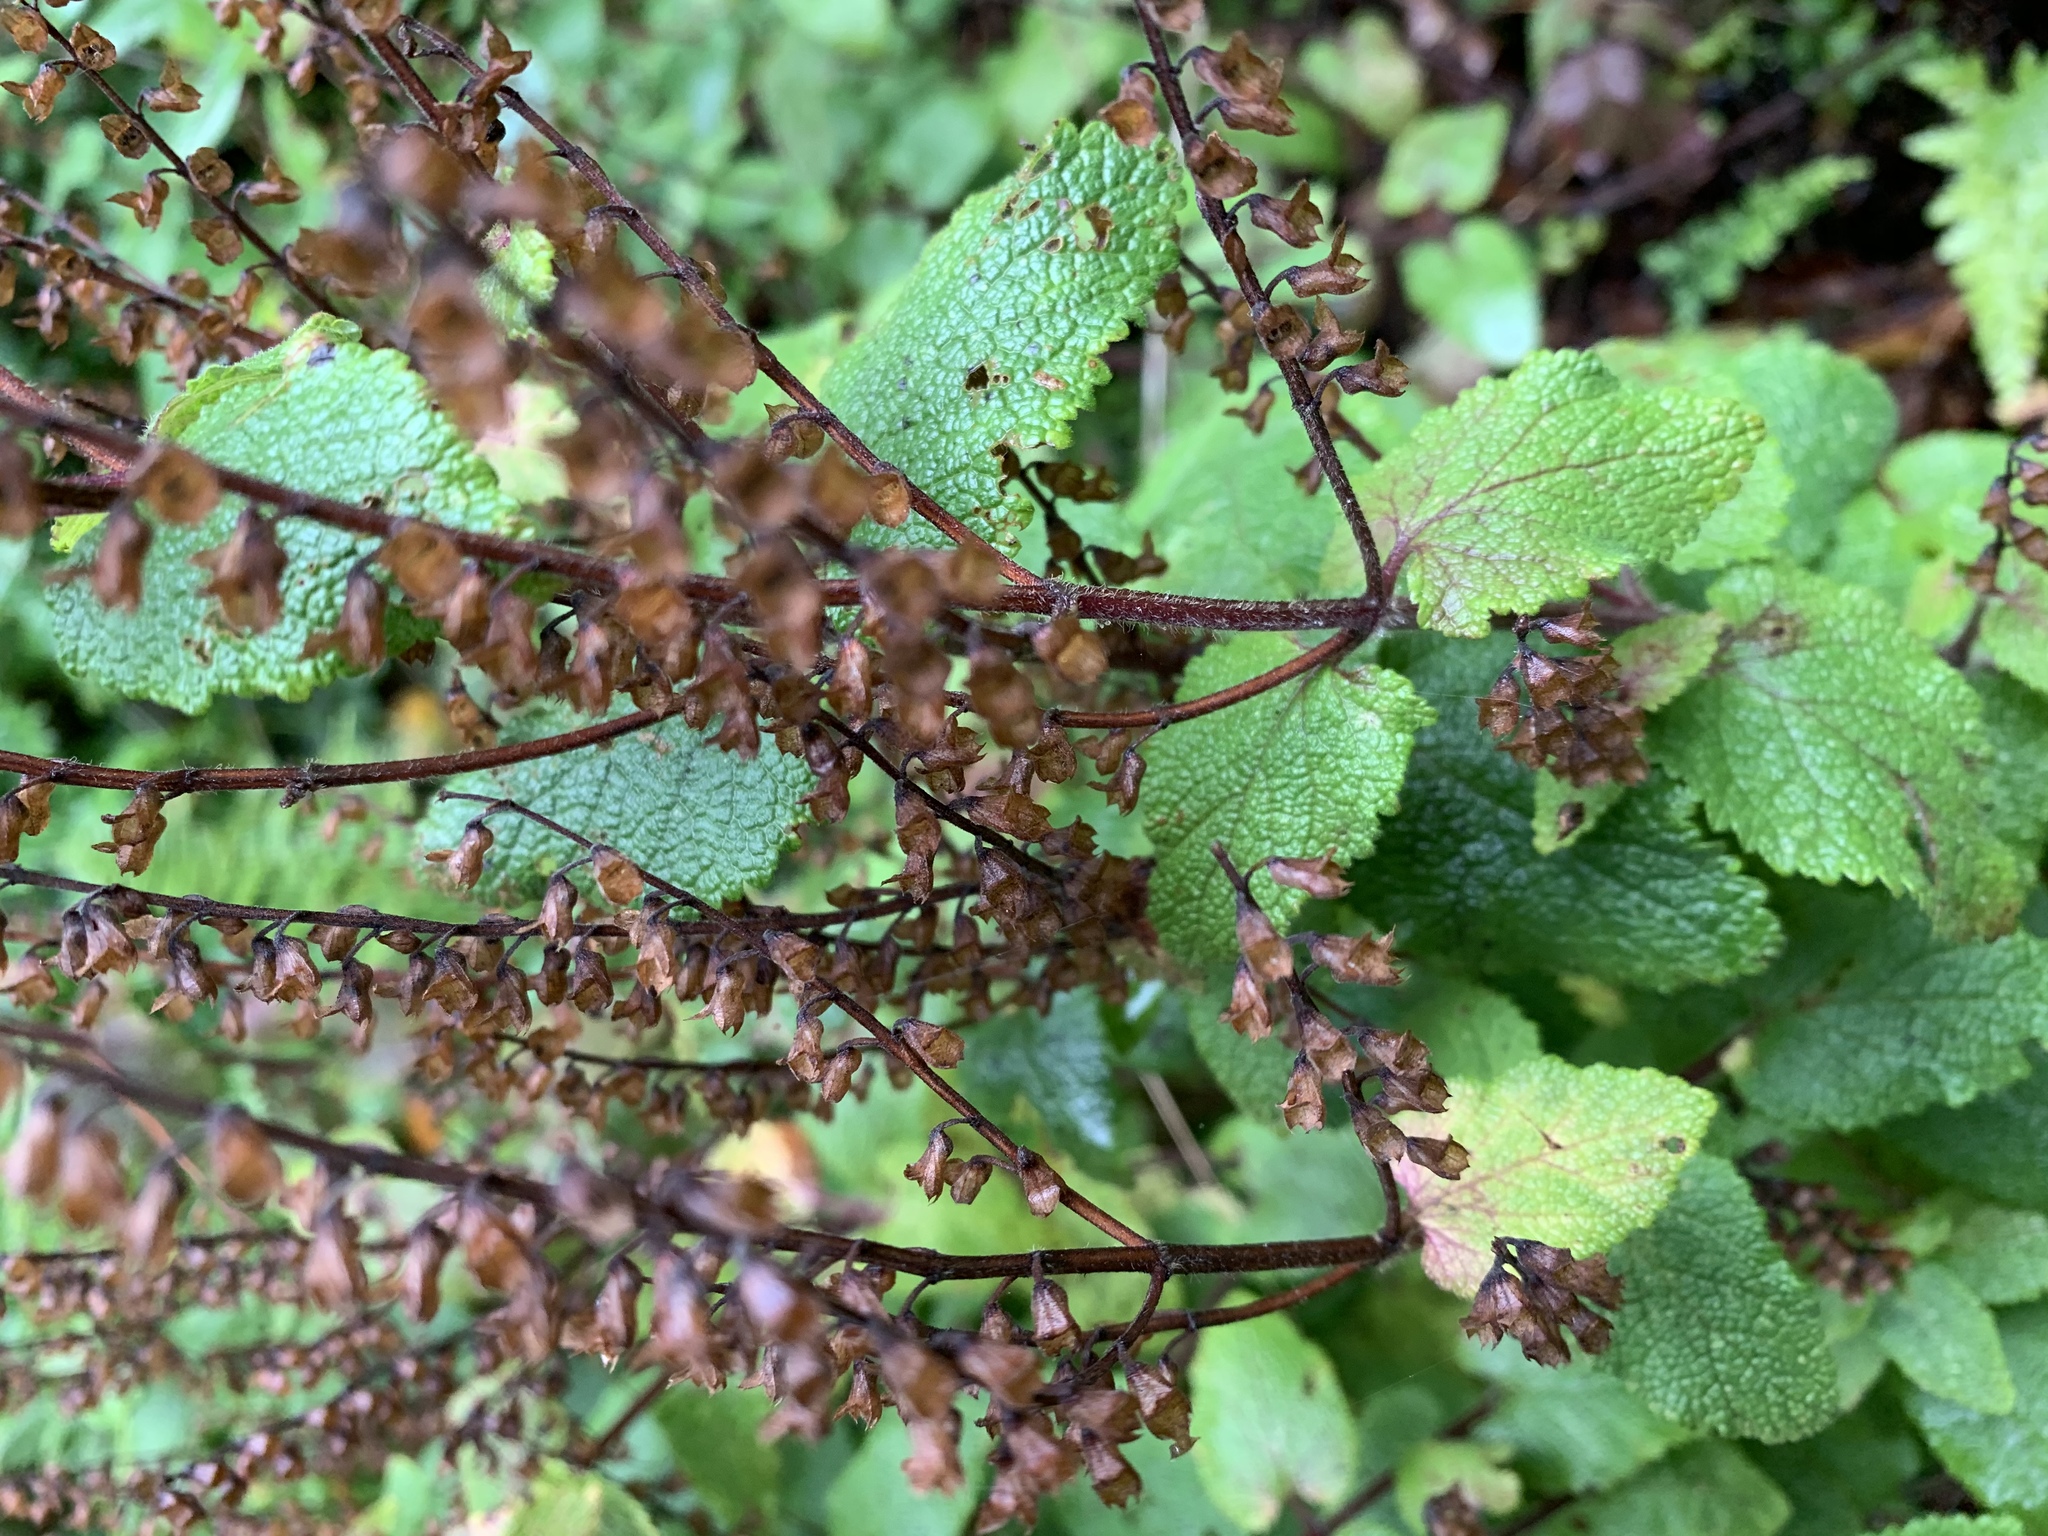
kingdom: Plantae
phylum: Tracheophyta
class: Magnoliopsida
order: Lamiales
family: Lamiaceae
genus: Teucrium
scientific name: Teucrium scorodonia
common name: Woodland germander
